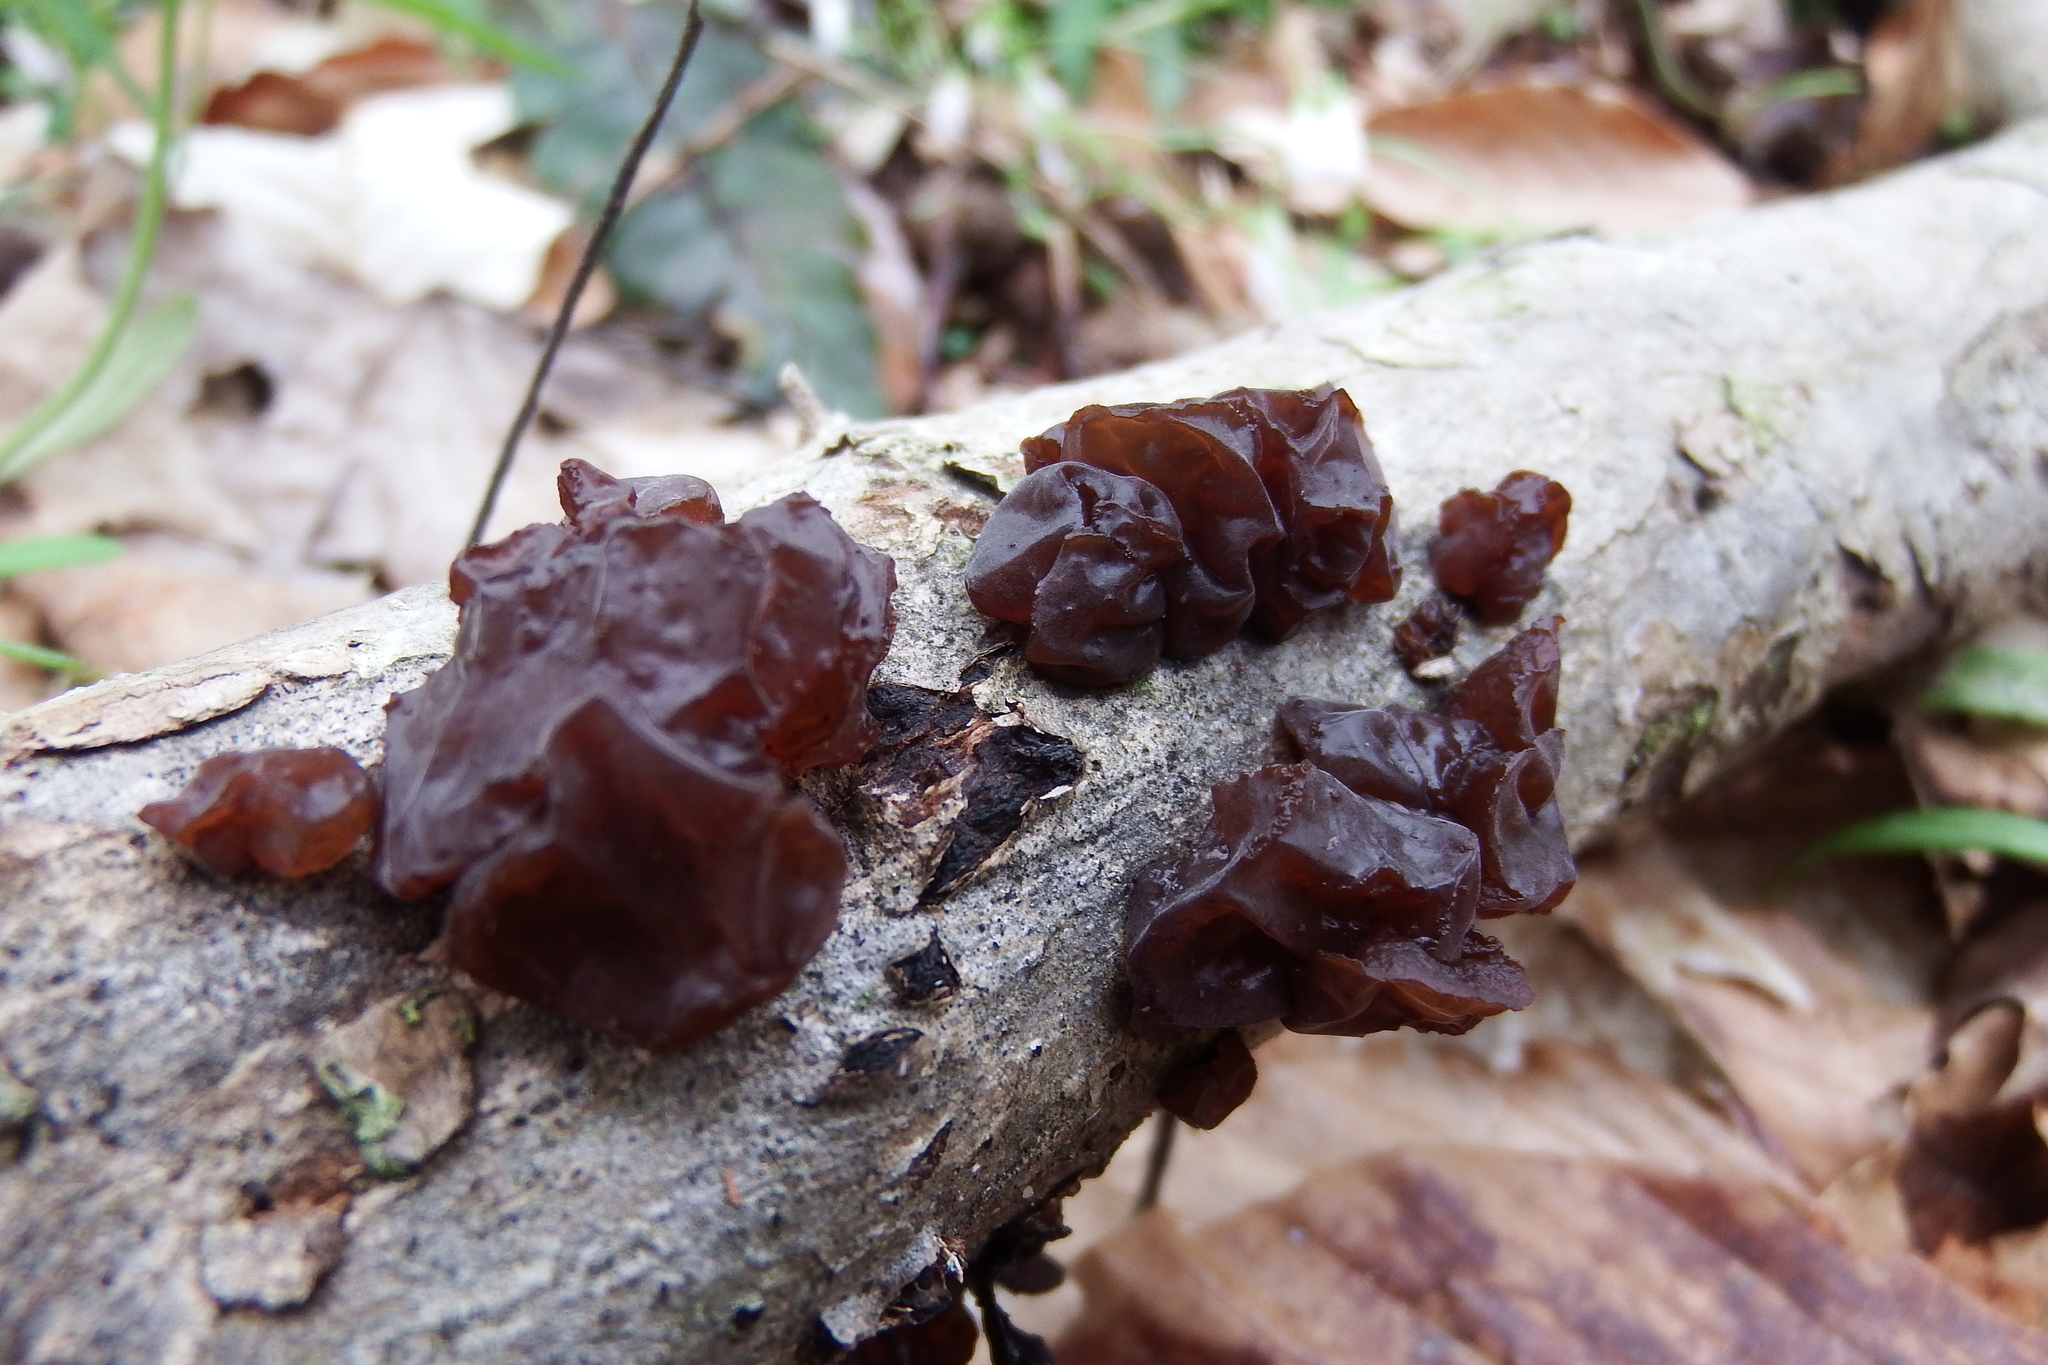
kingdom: Fungi
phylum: Basidiomycota
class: Agaricomycetes
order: Auriculariales
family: Auriculariaceae
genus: Exidia
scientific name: Exidia
